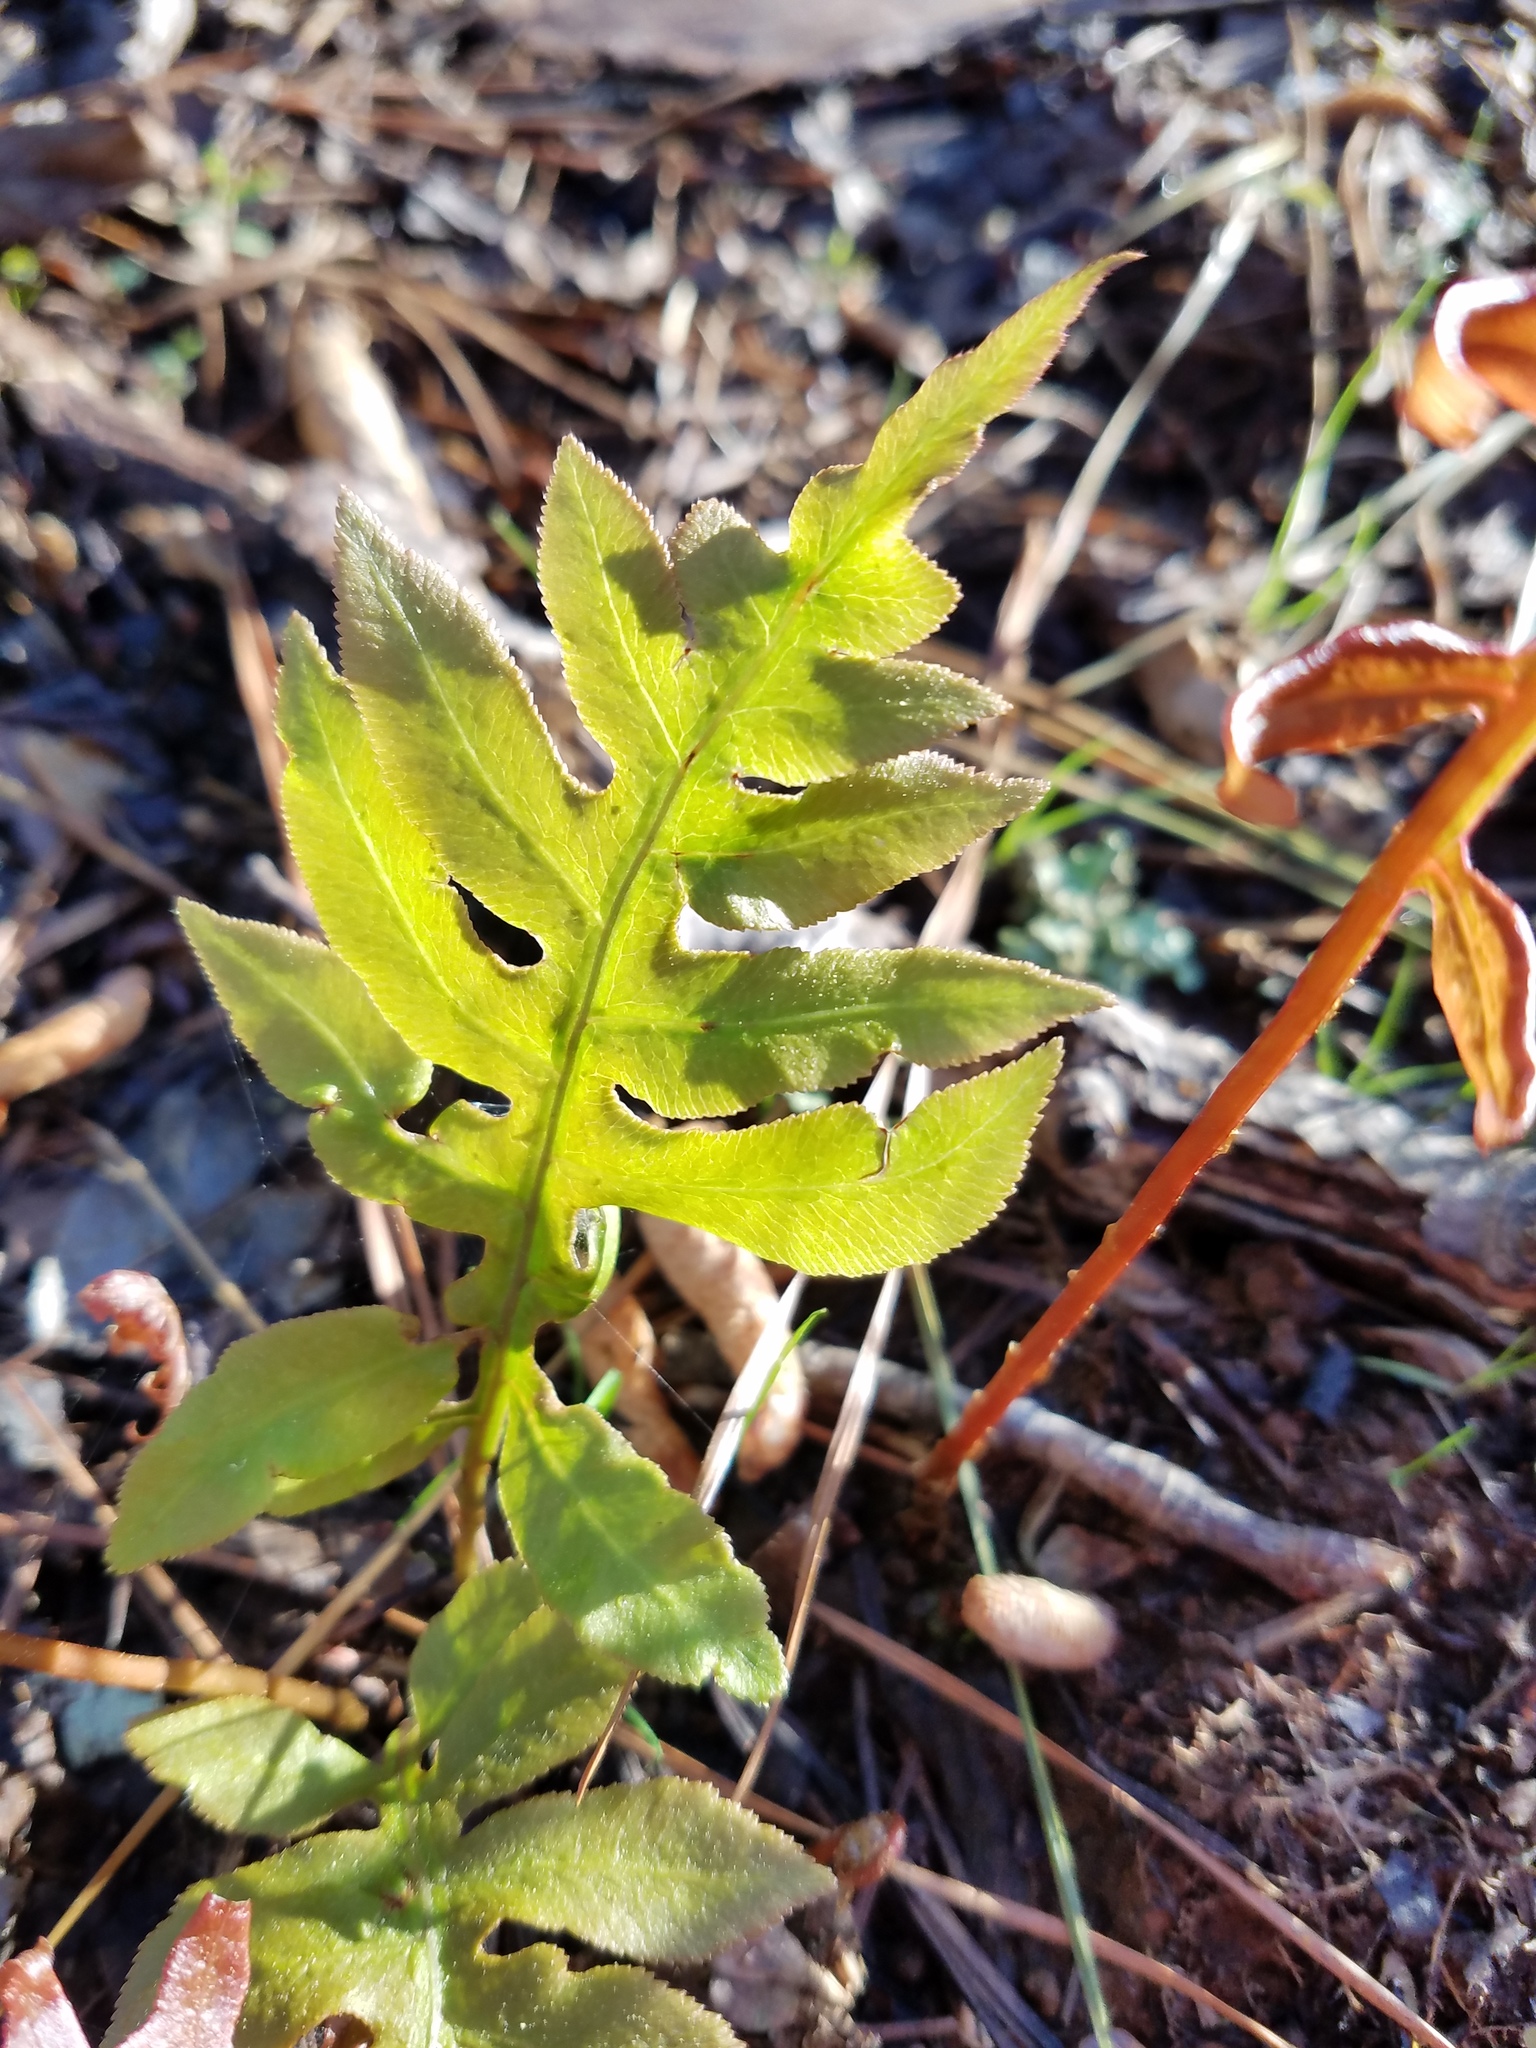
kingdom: Plantae
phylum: Tracheophyta
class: Polypodiopsida
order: Polypodiales
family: Blechnaceae
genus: Lorinseria
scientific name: Lorinseria areolata
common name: Dwarf chain fern
